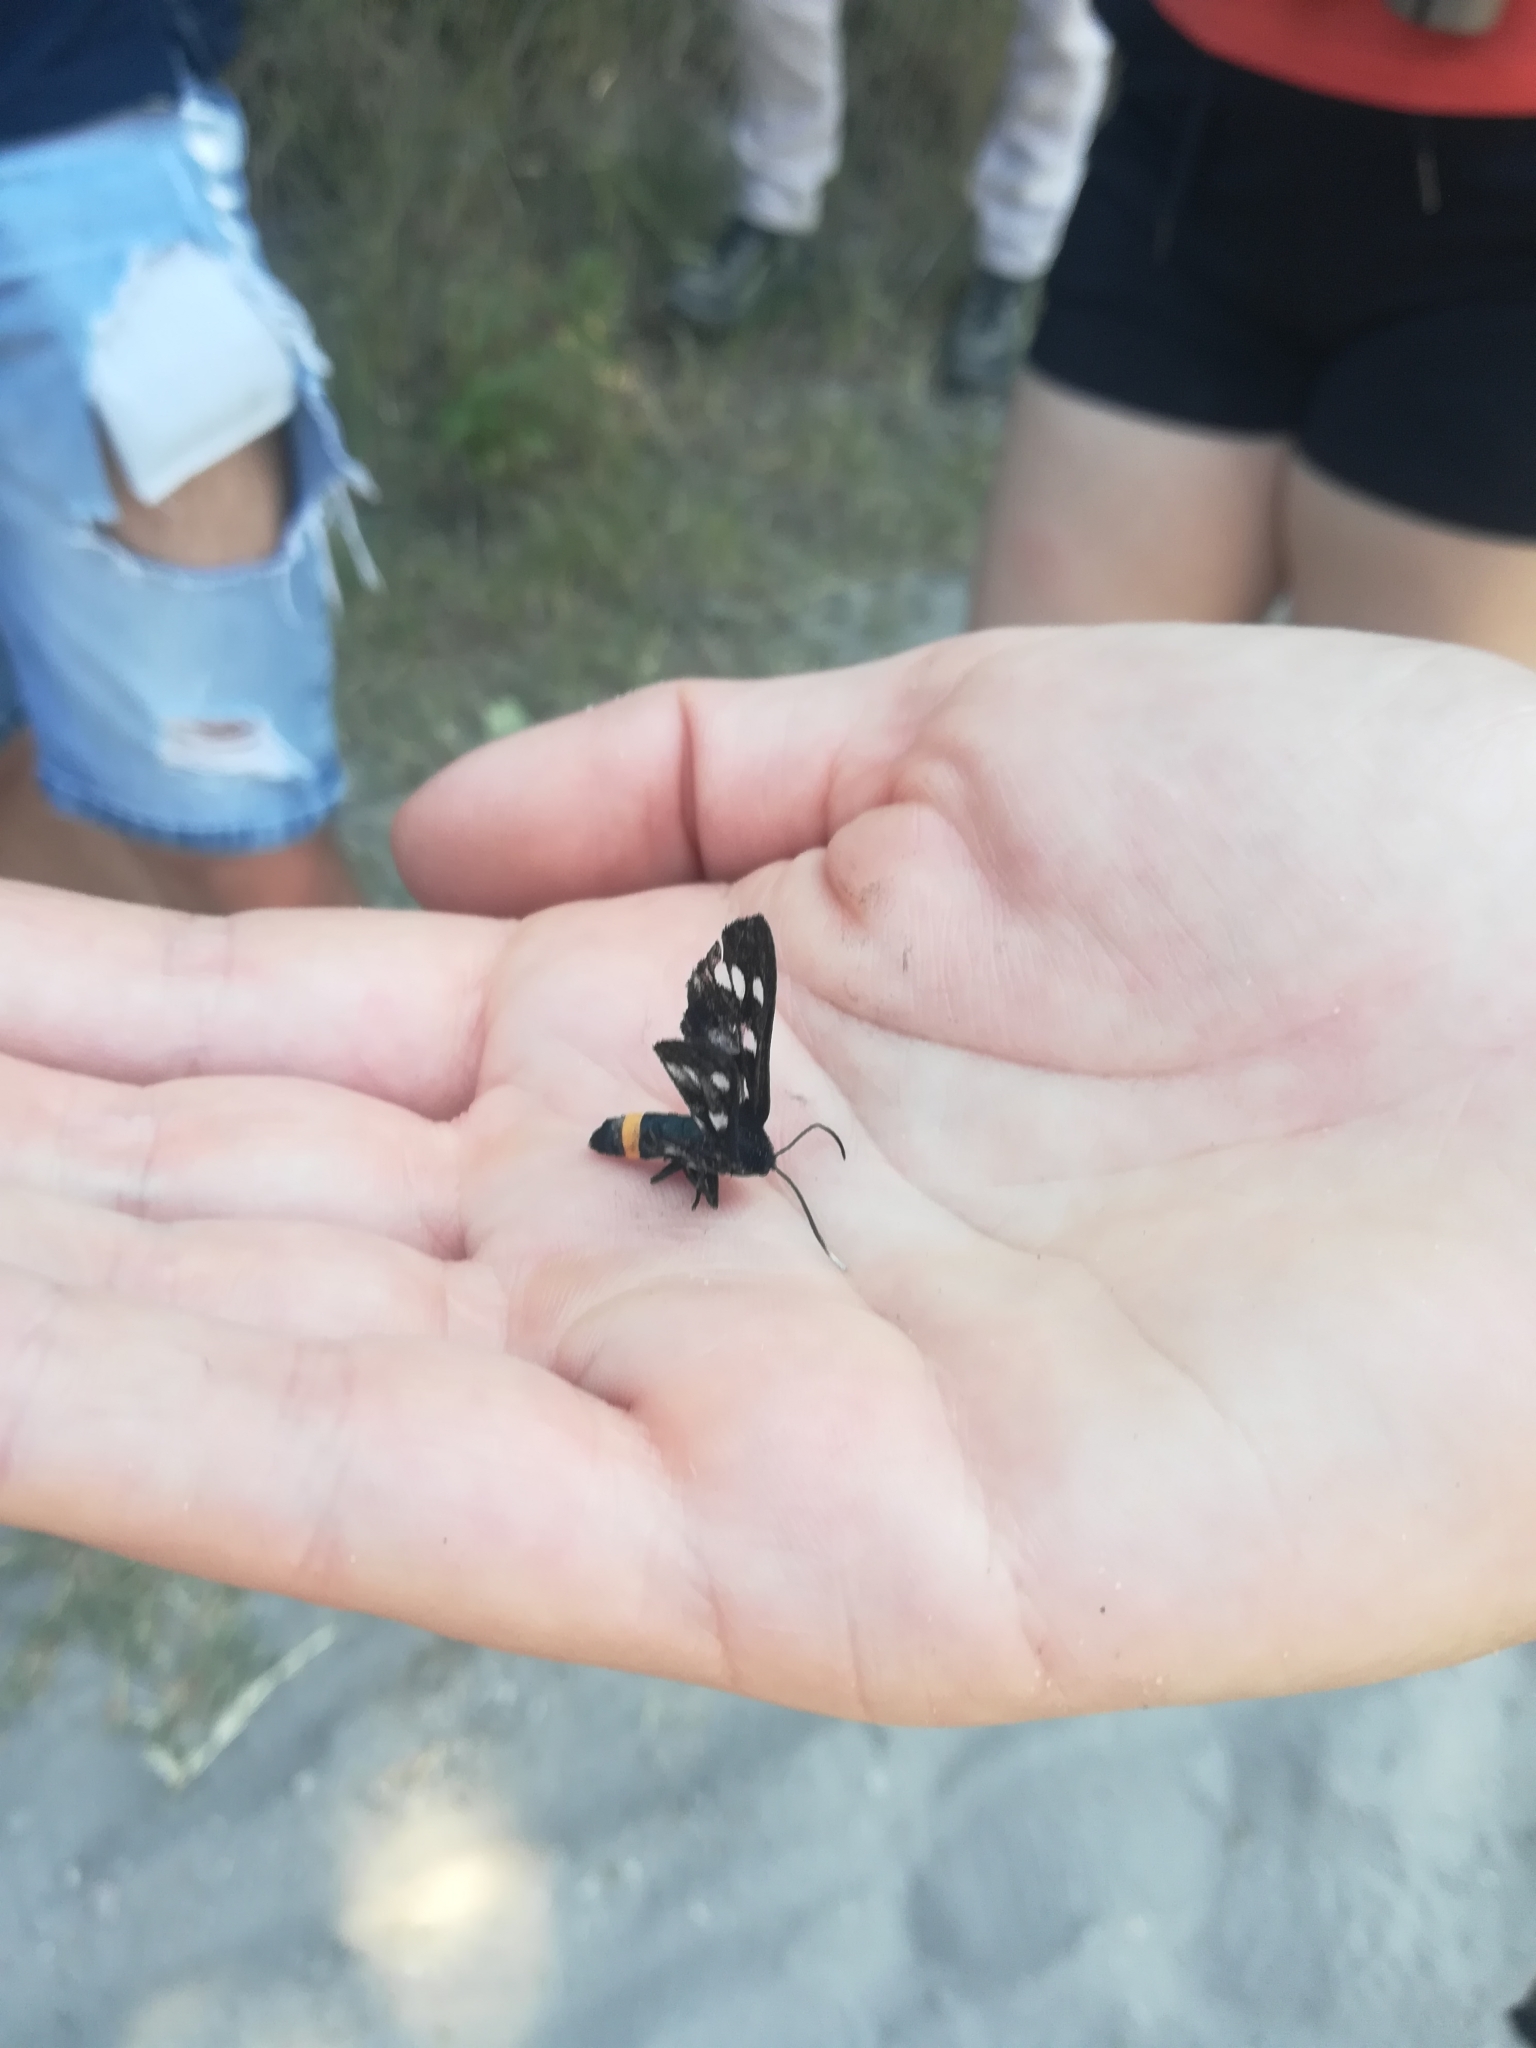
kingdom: Animalia
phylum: Arthropoda
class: Insecta
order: Lepidoptera
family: Erebidae
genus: Amata
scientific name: Amata phegea
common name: Nine-spotted
